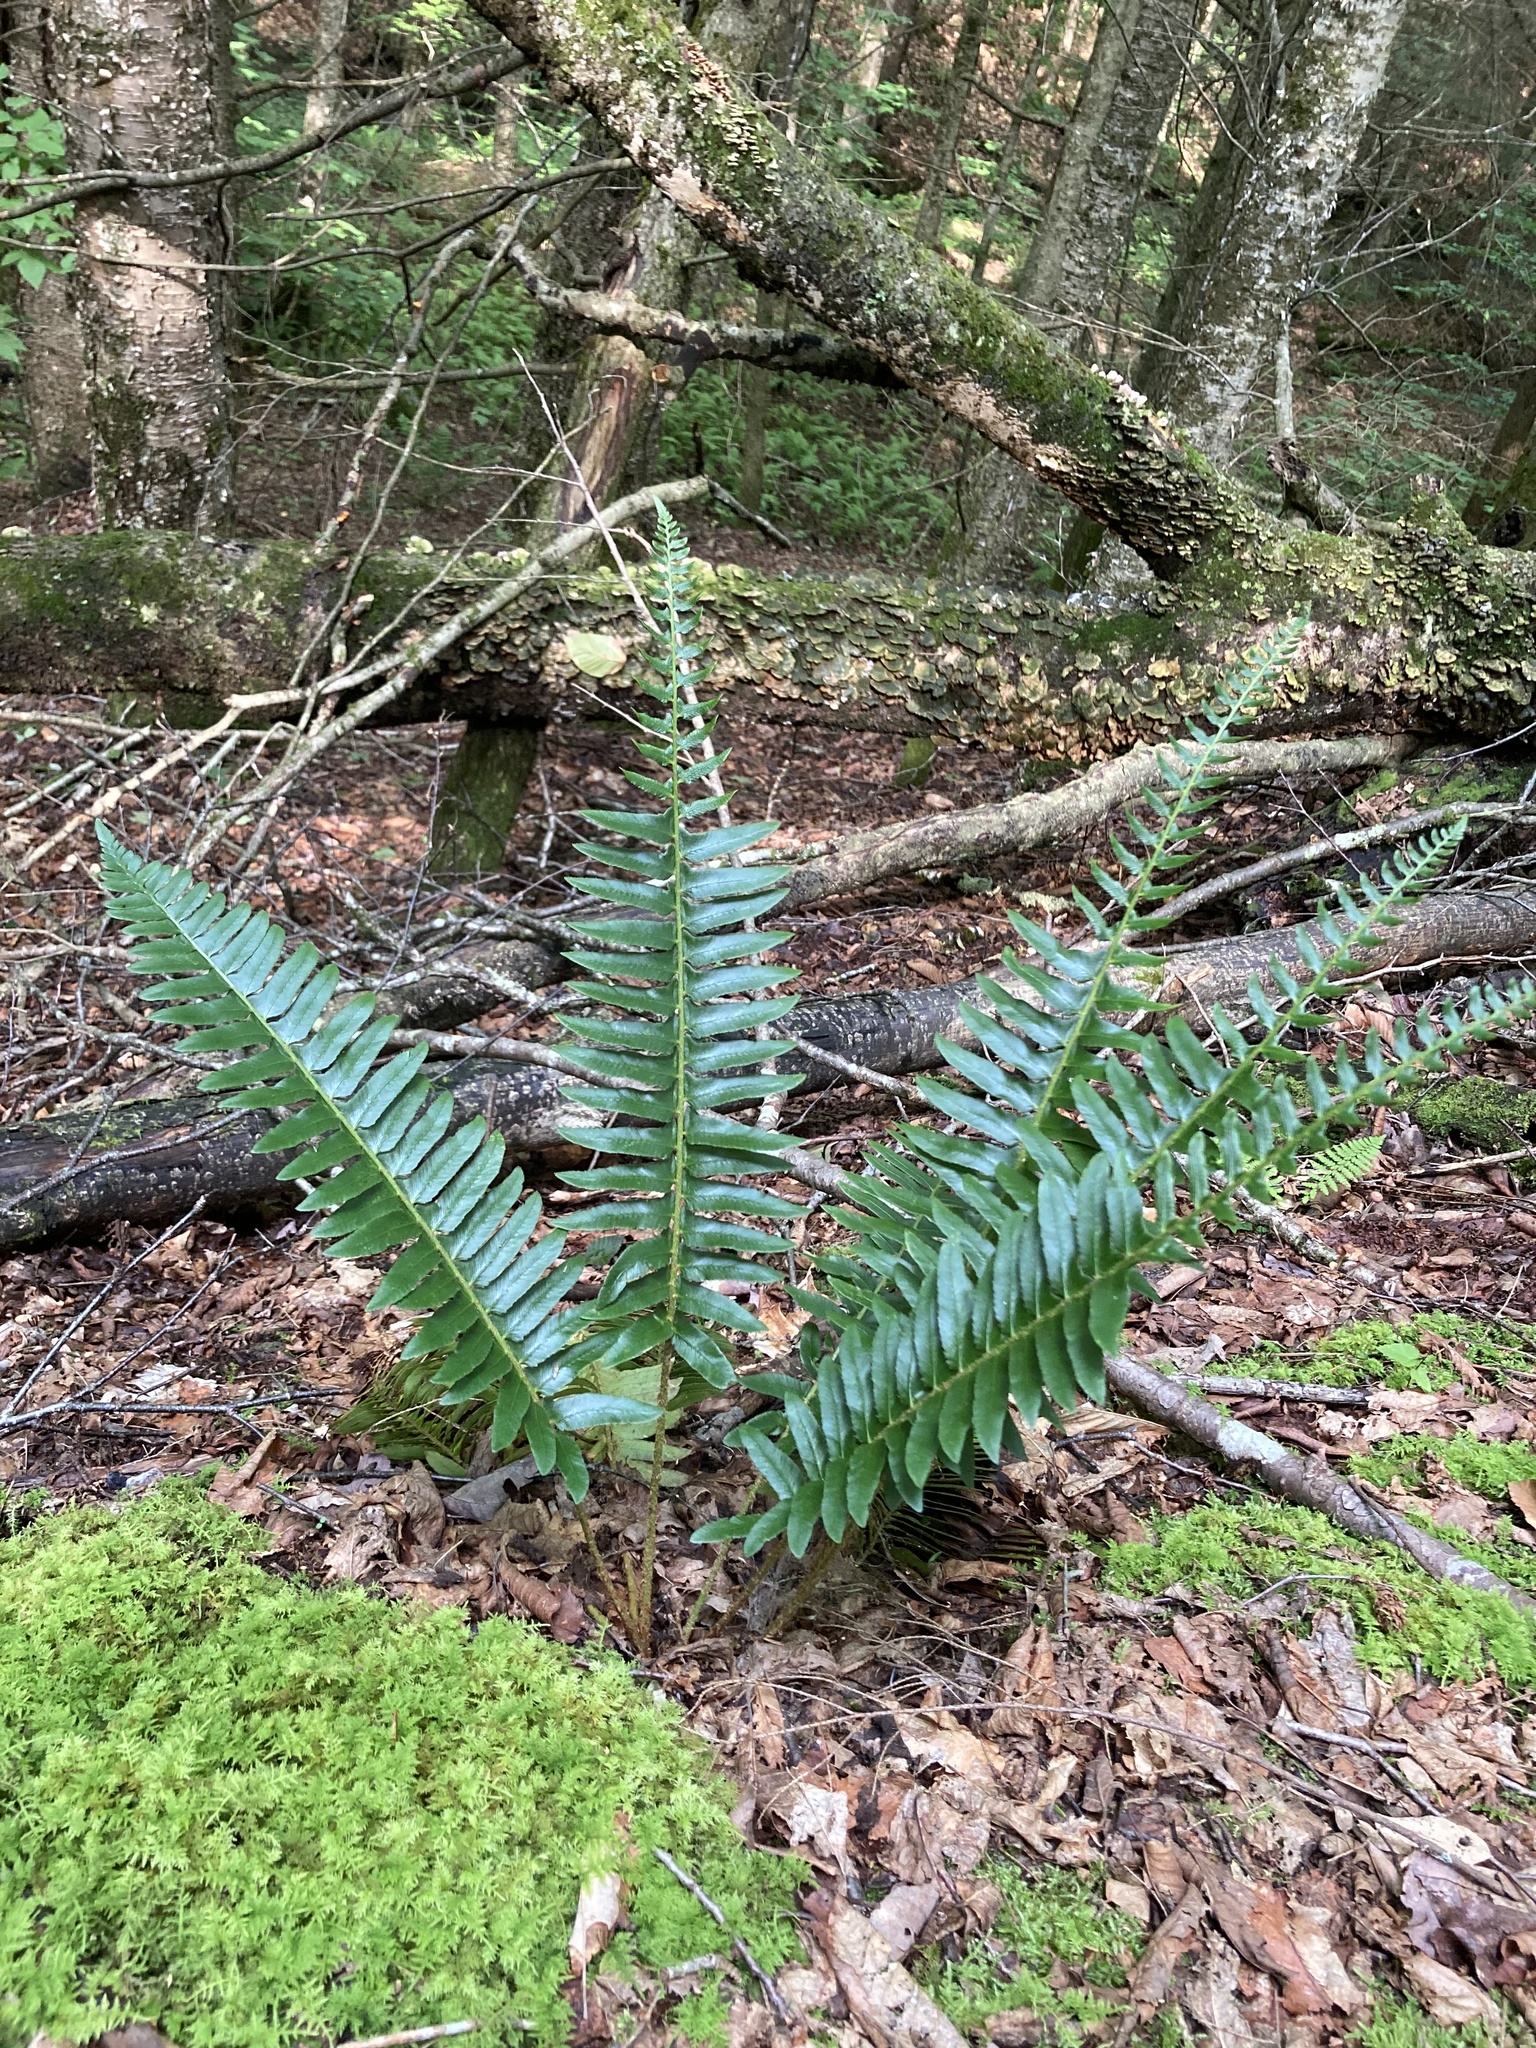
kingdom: Plantae
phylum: Tracheophyta
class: Polypodiopsida
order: Polypodiales
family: Dryopteridaceae
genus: Polystichum
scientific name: Polystichum acrostichoides
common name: Christmas fern
